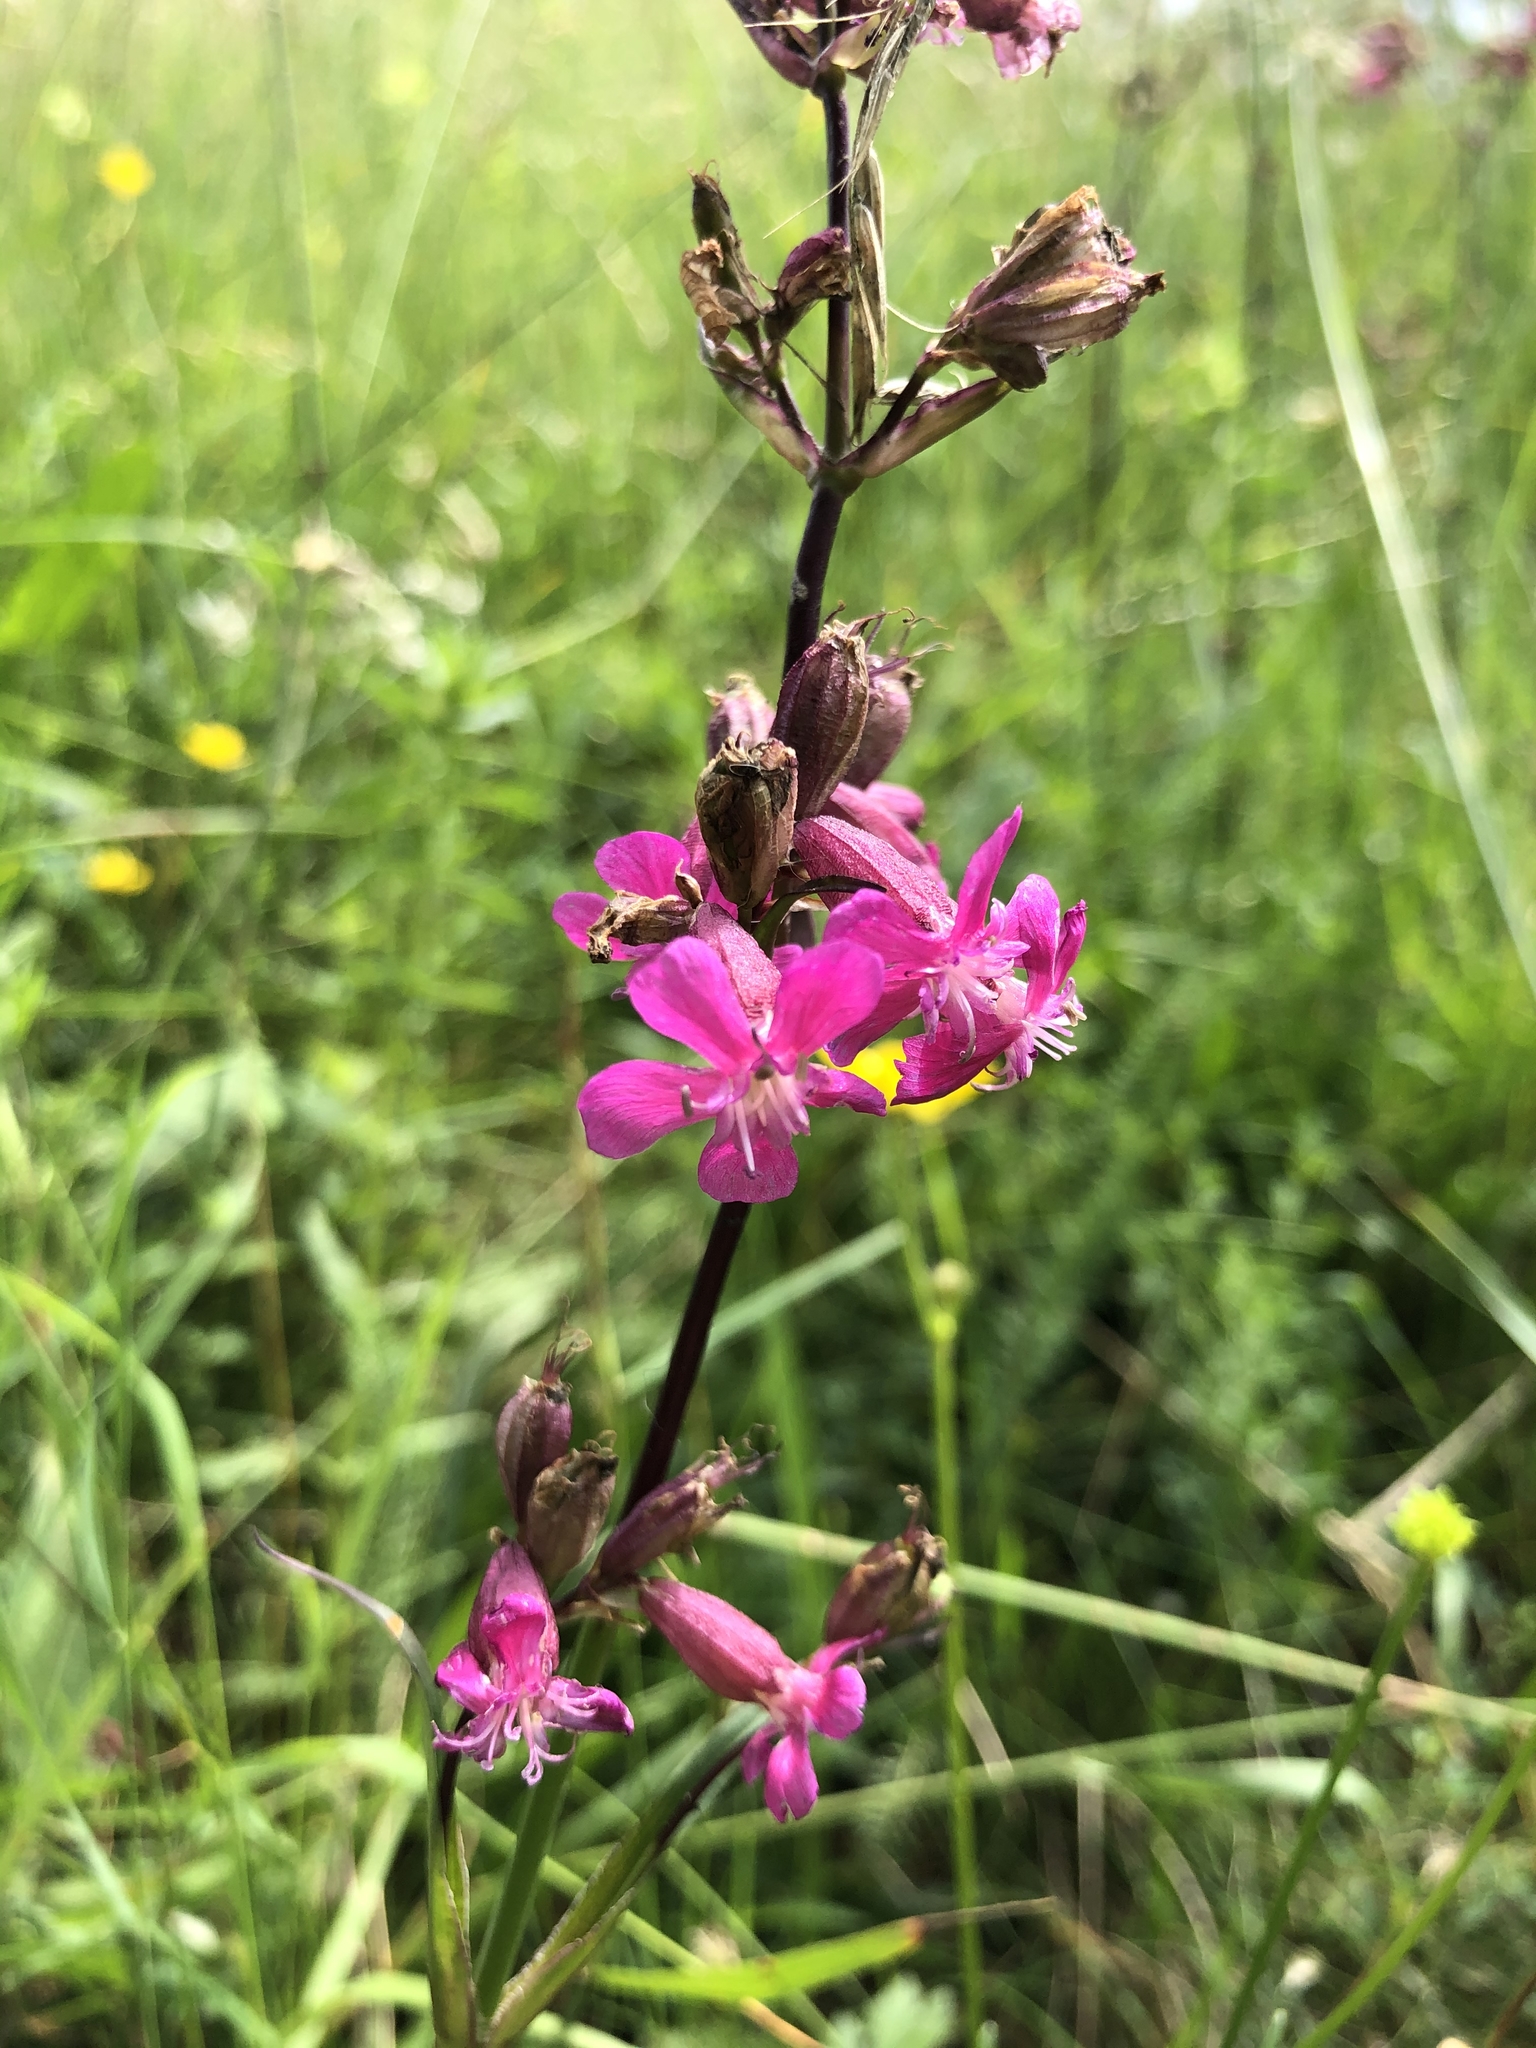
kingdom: Plantae
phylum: Tracheophyta
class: Magnoliopsida
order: Caryophyllales
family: Caryophyllaceae
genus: Viscaria
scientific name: Viscaria vulgaris
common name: Clammy campion
